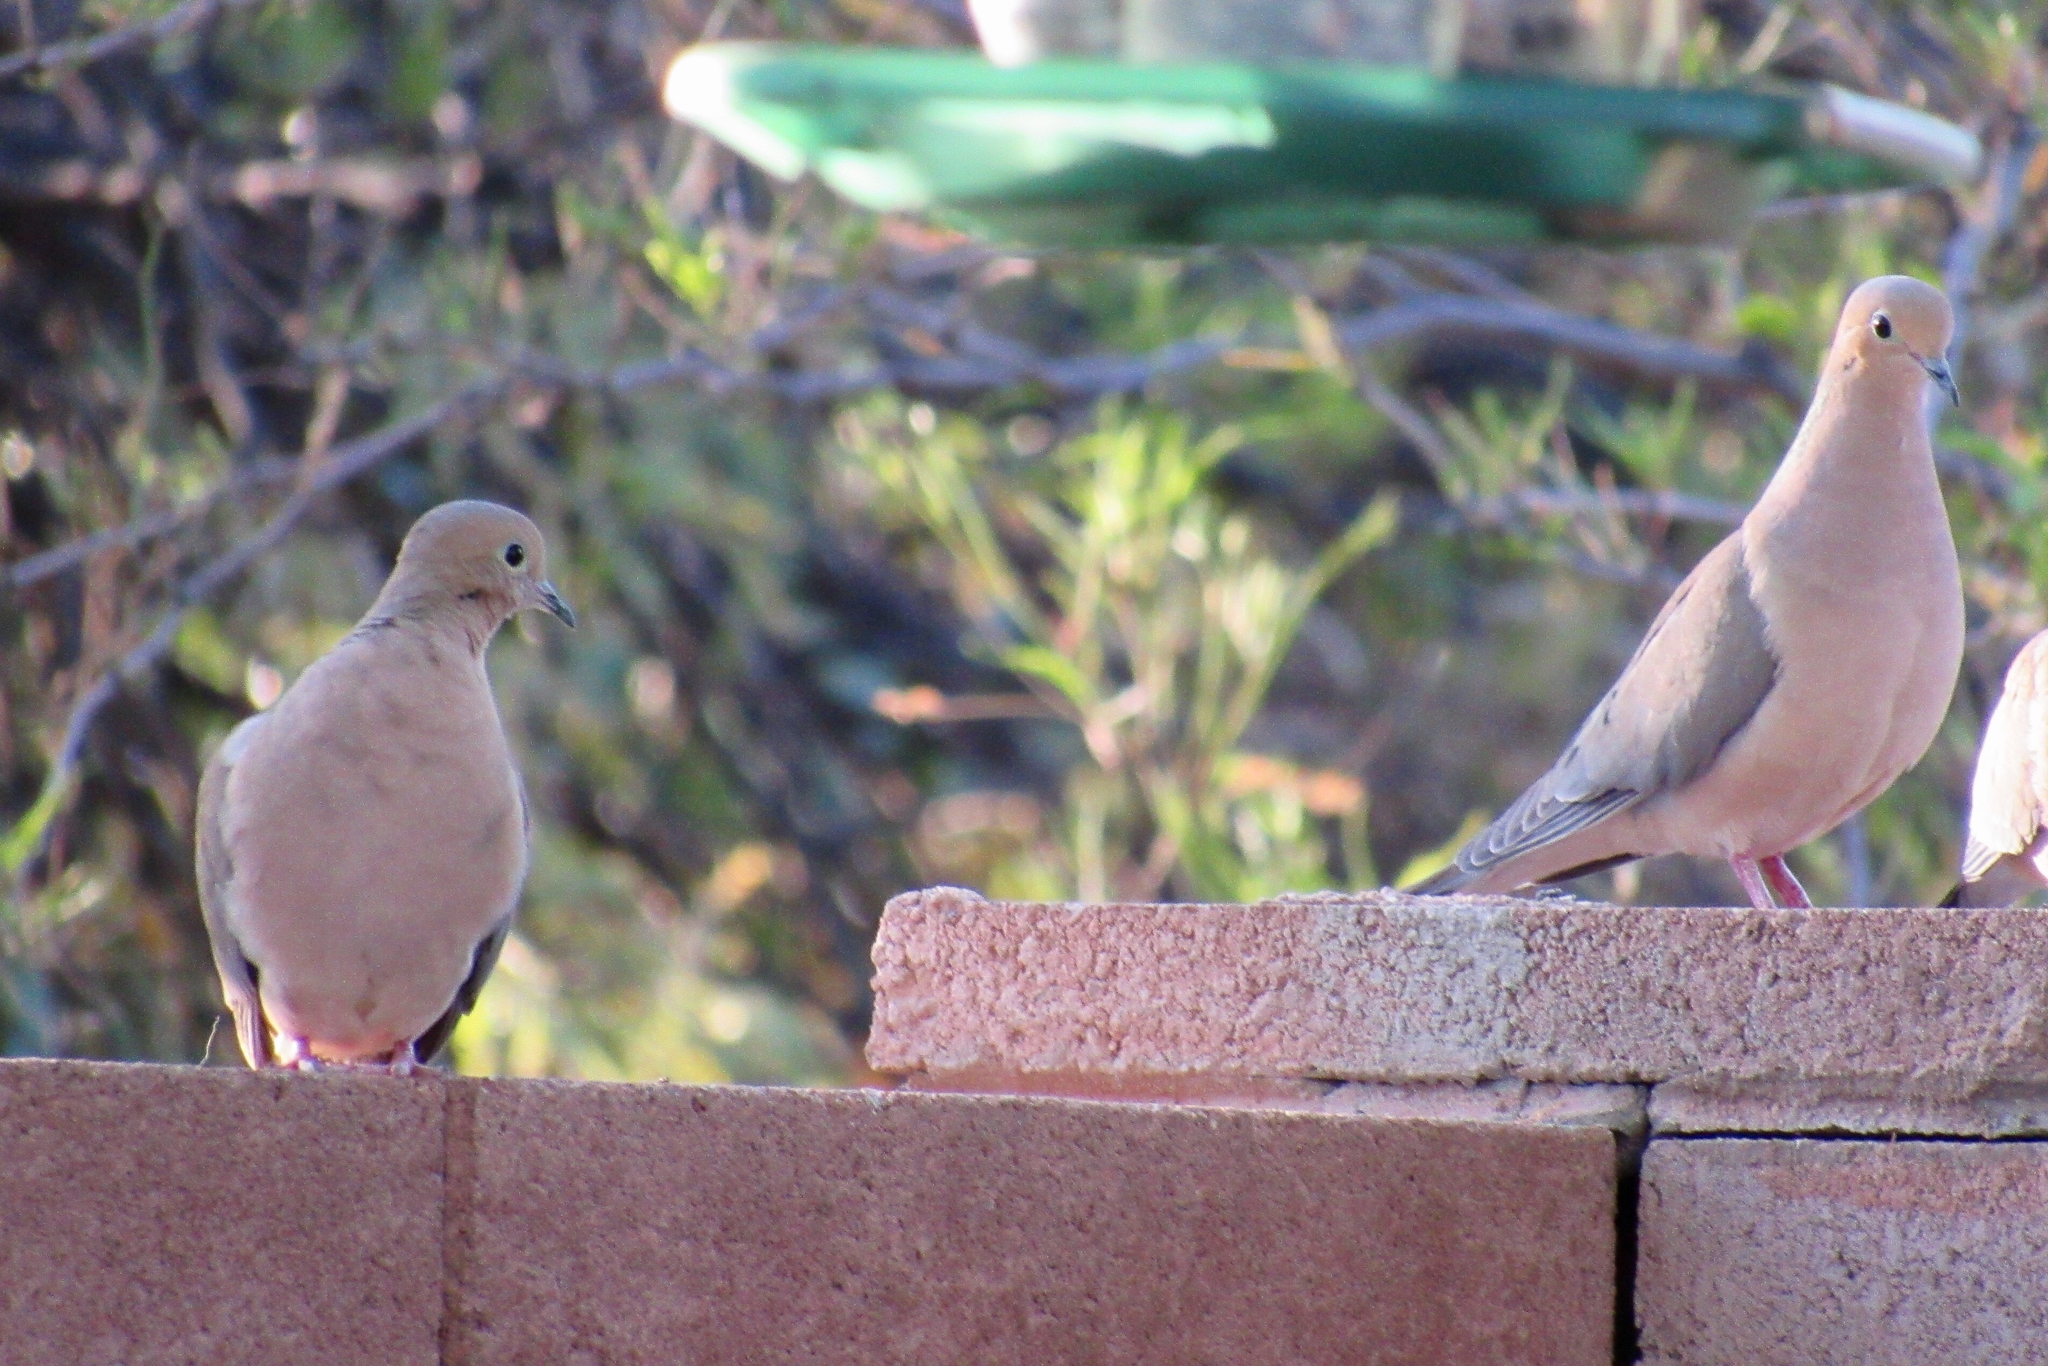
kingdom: Animalia
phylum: Chordata
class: Aves
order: Columbiformes
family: Columbidae
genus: Zenaida
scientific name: Zenaida macroura
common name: Mourning dove
